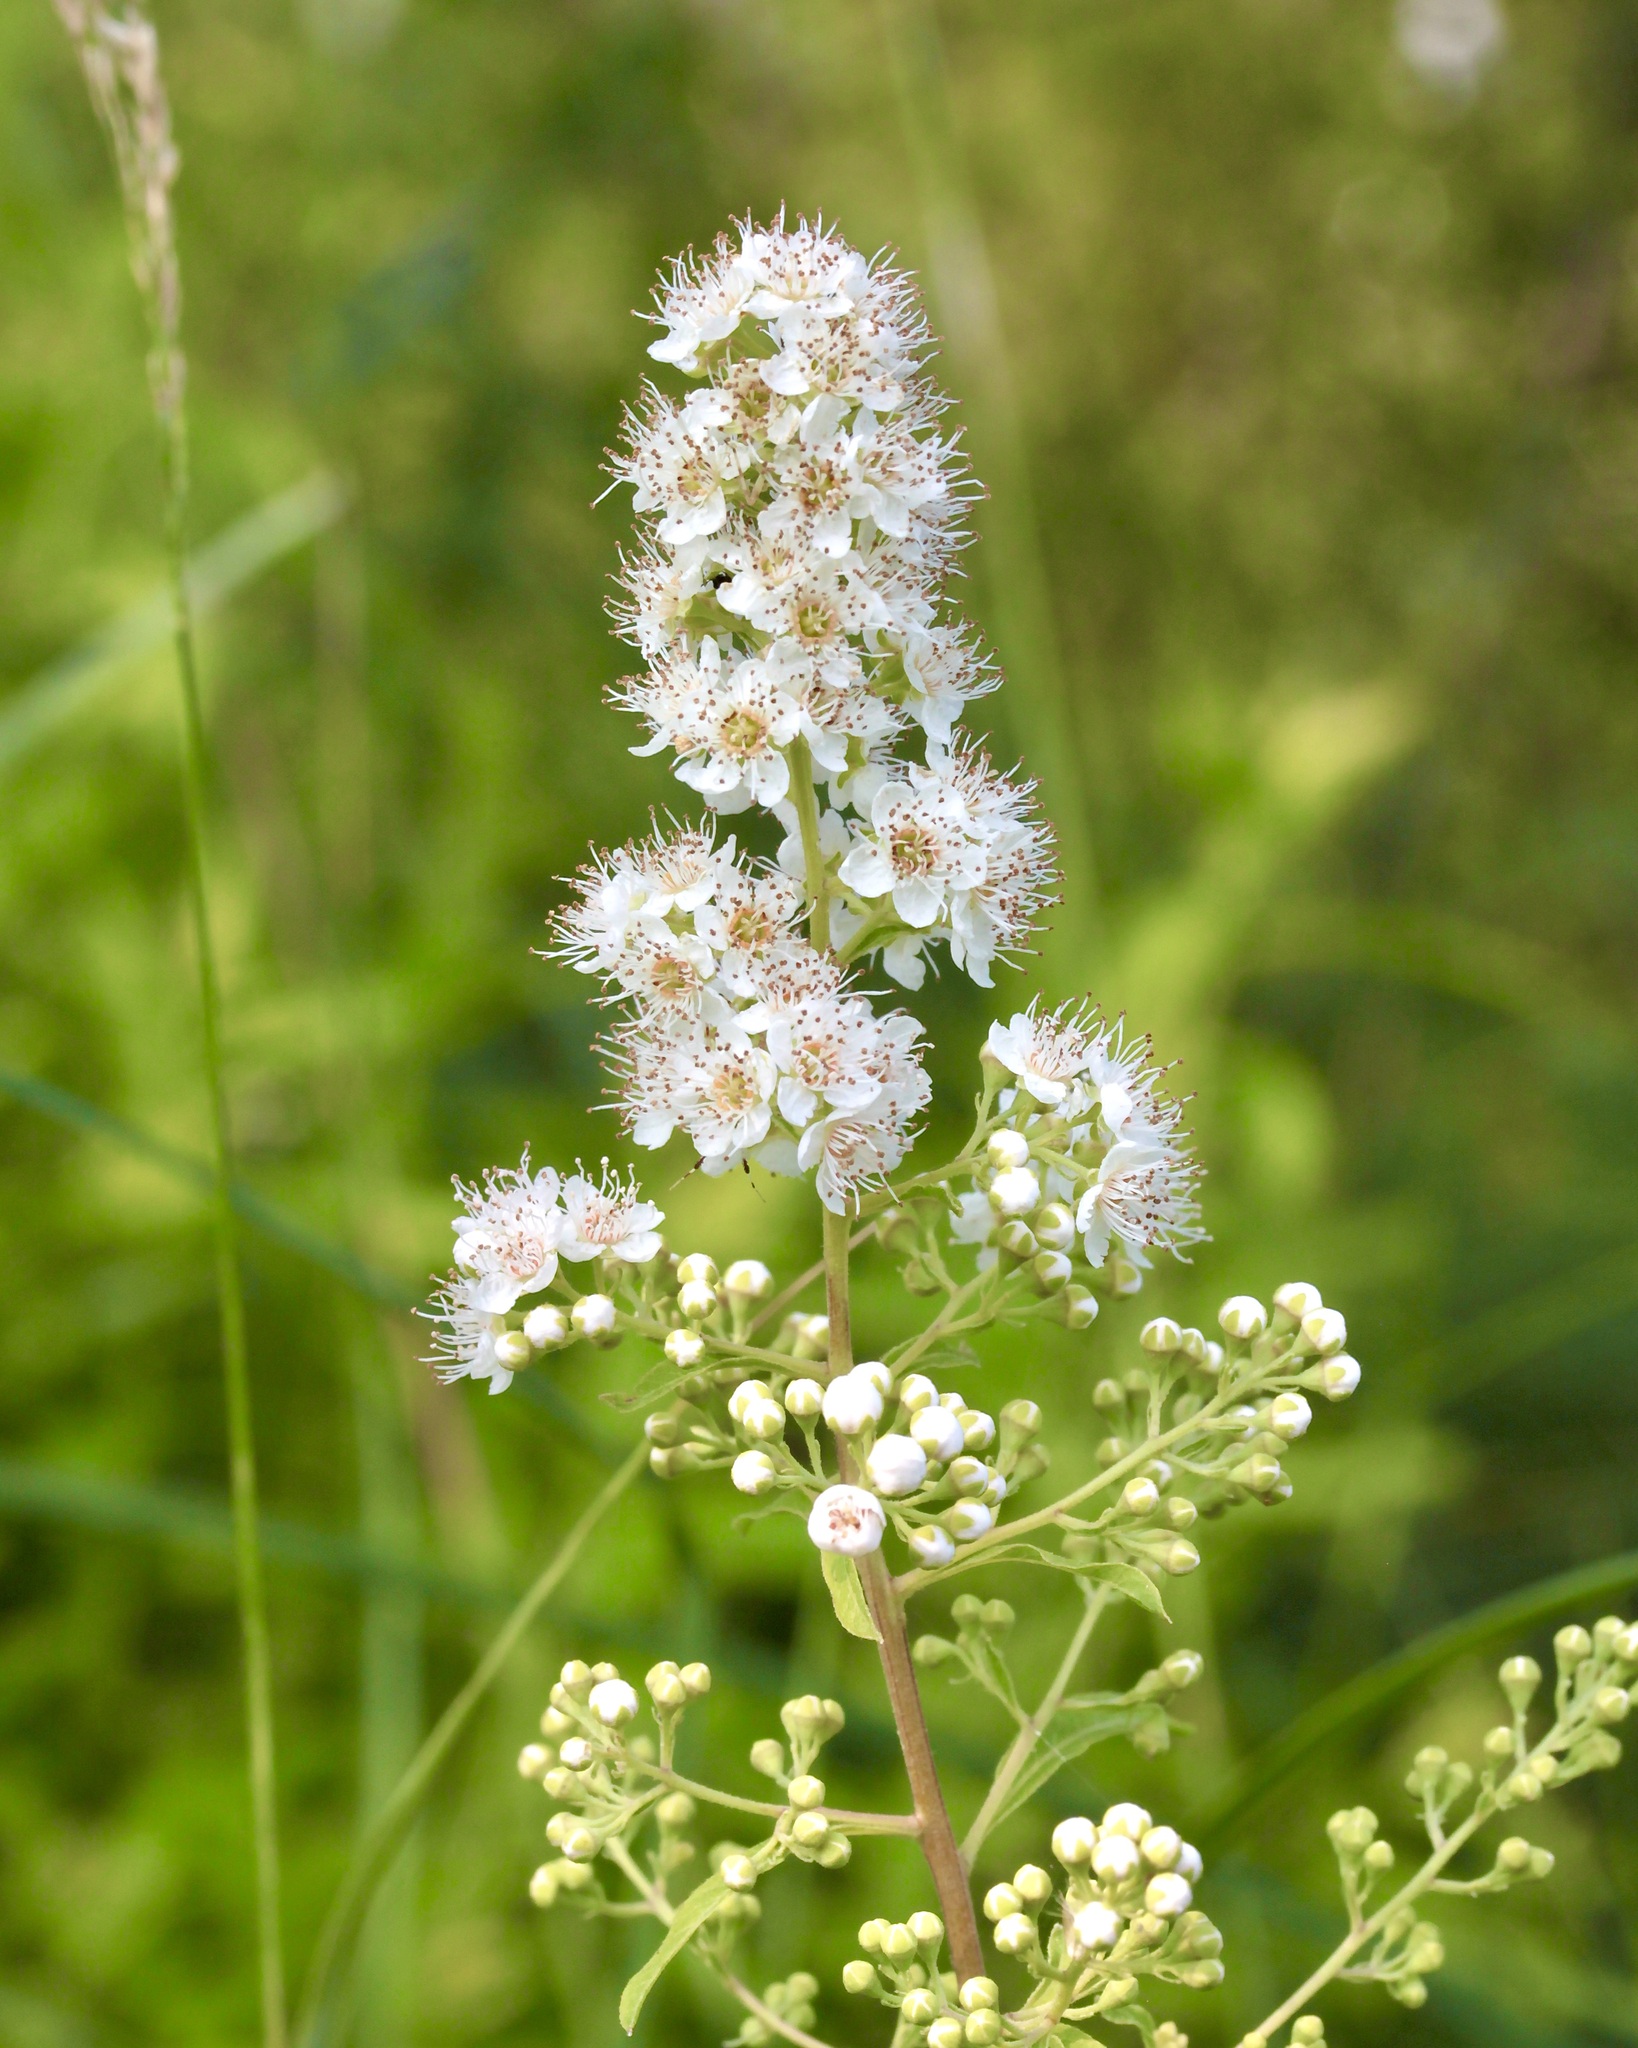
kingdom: Plantae
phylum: Tracheophyta
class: Magnoliopsida
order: Rosales
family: Rosaceae
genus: Spiraea
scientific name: Spiraea alba
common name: Pale bridewort
